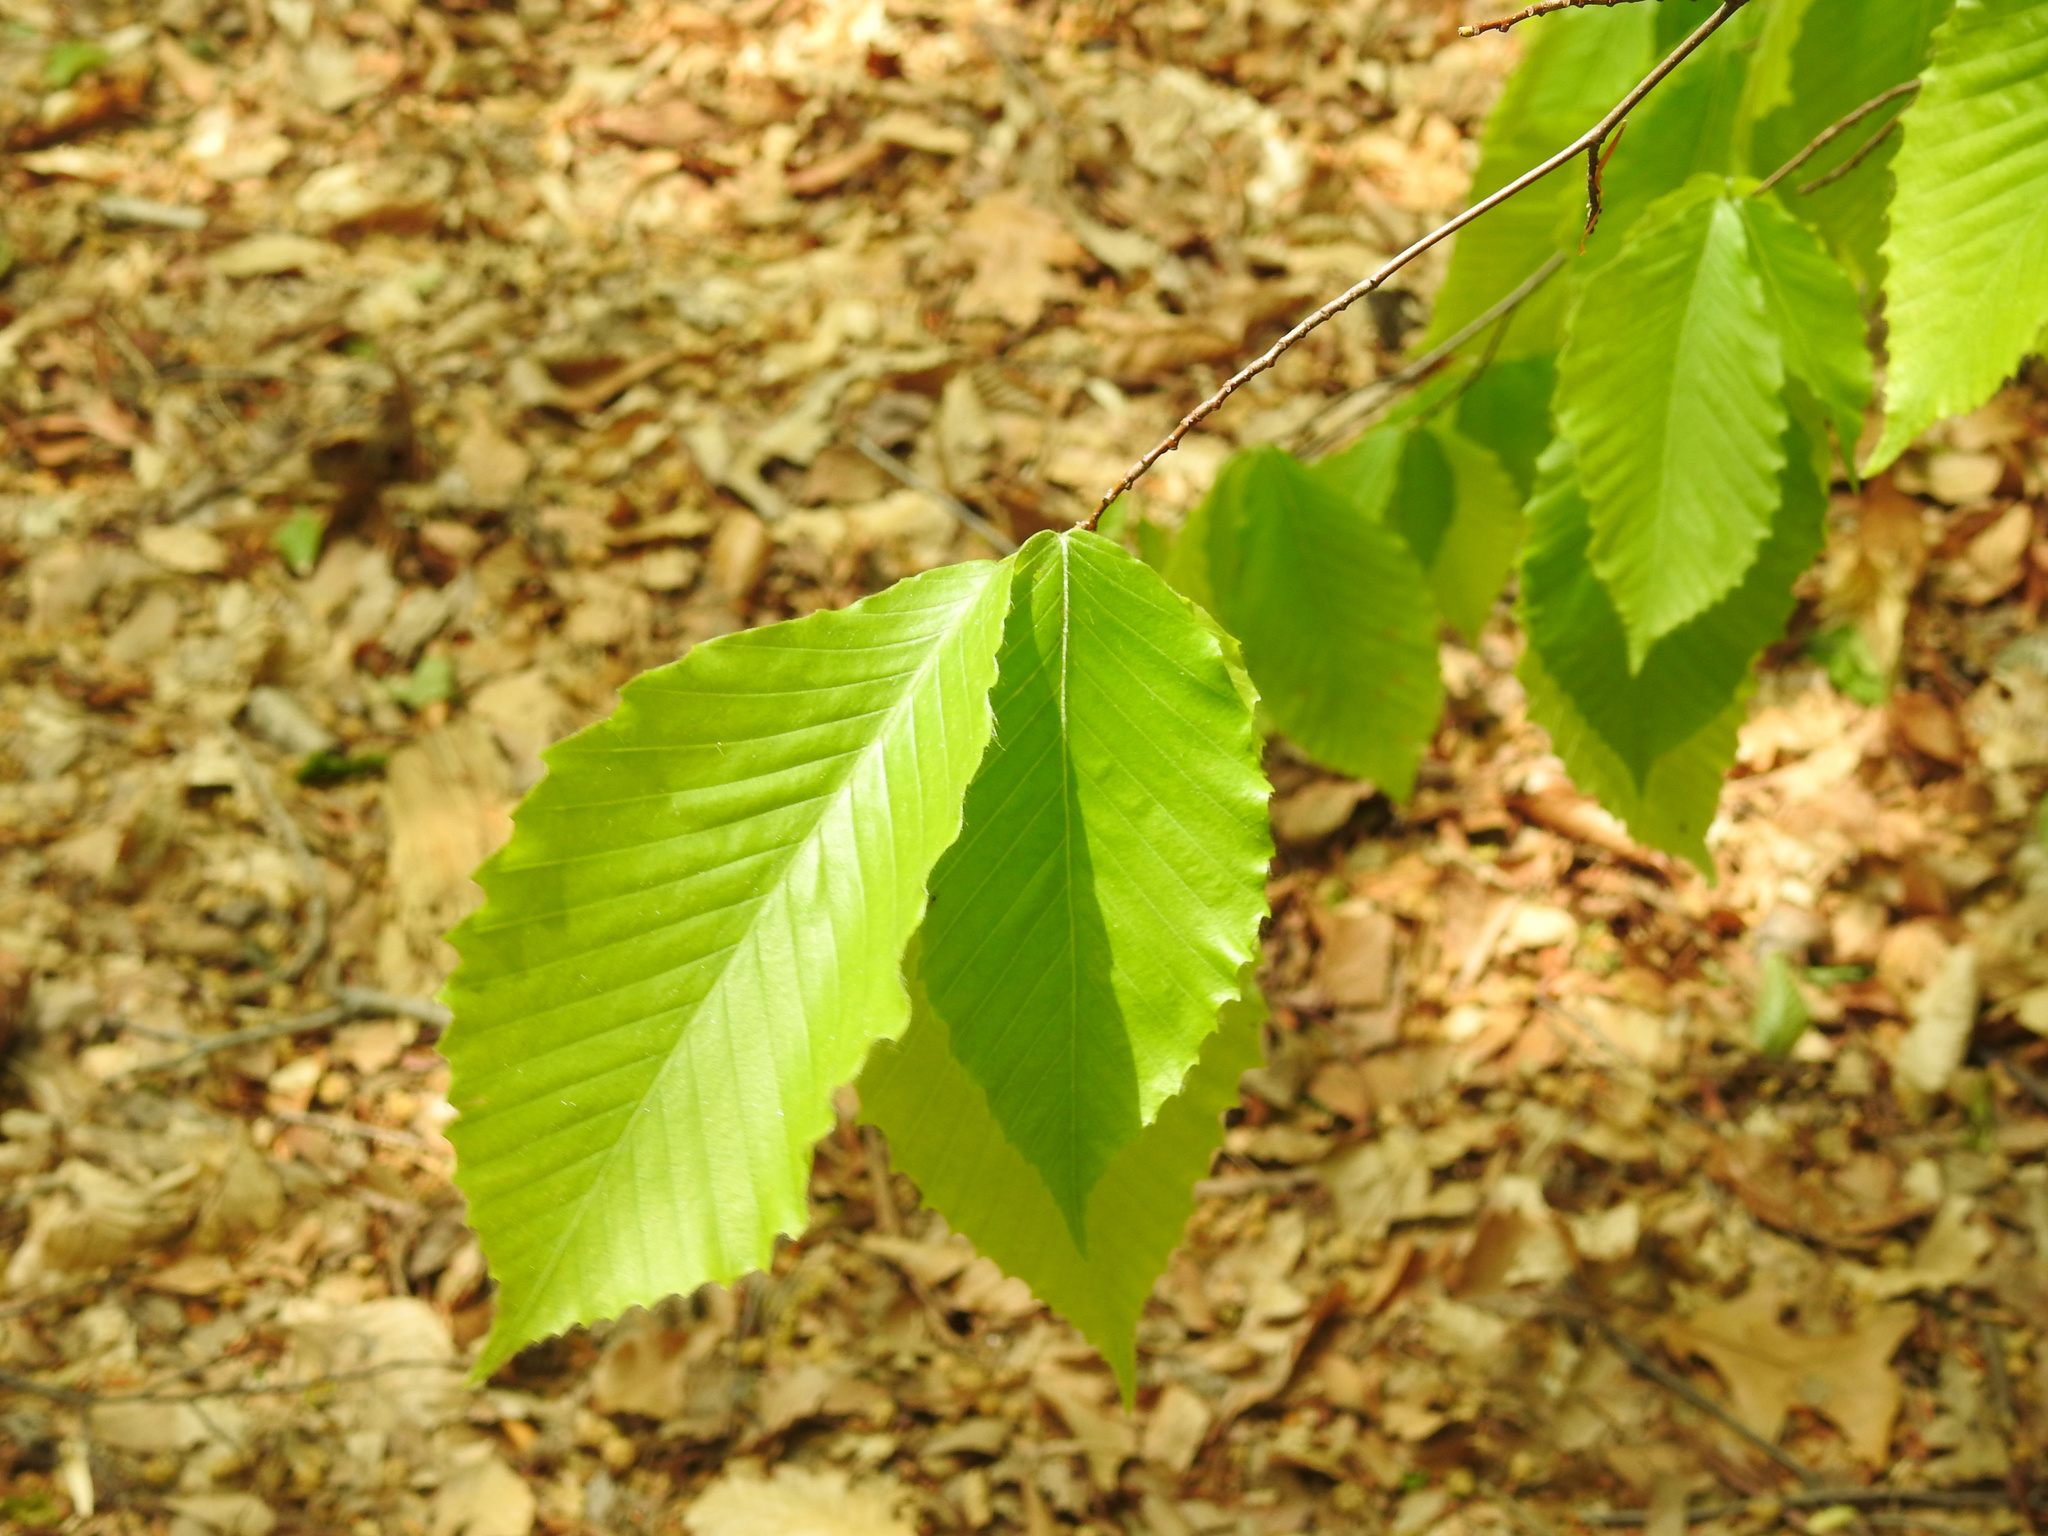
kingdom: Plantae
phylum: Tracheophyta
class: Magnoliopsida
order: Fagales
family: Fagaceae
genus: Fagus
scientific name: Fagus grandifolia
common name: American beech
